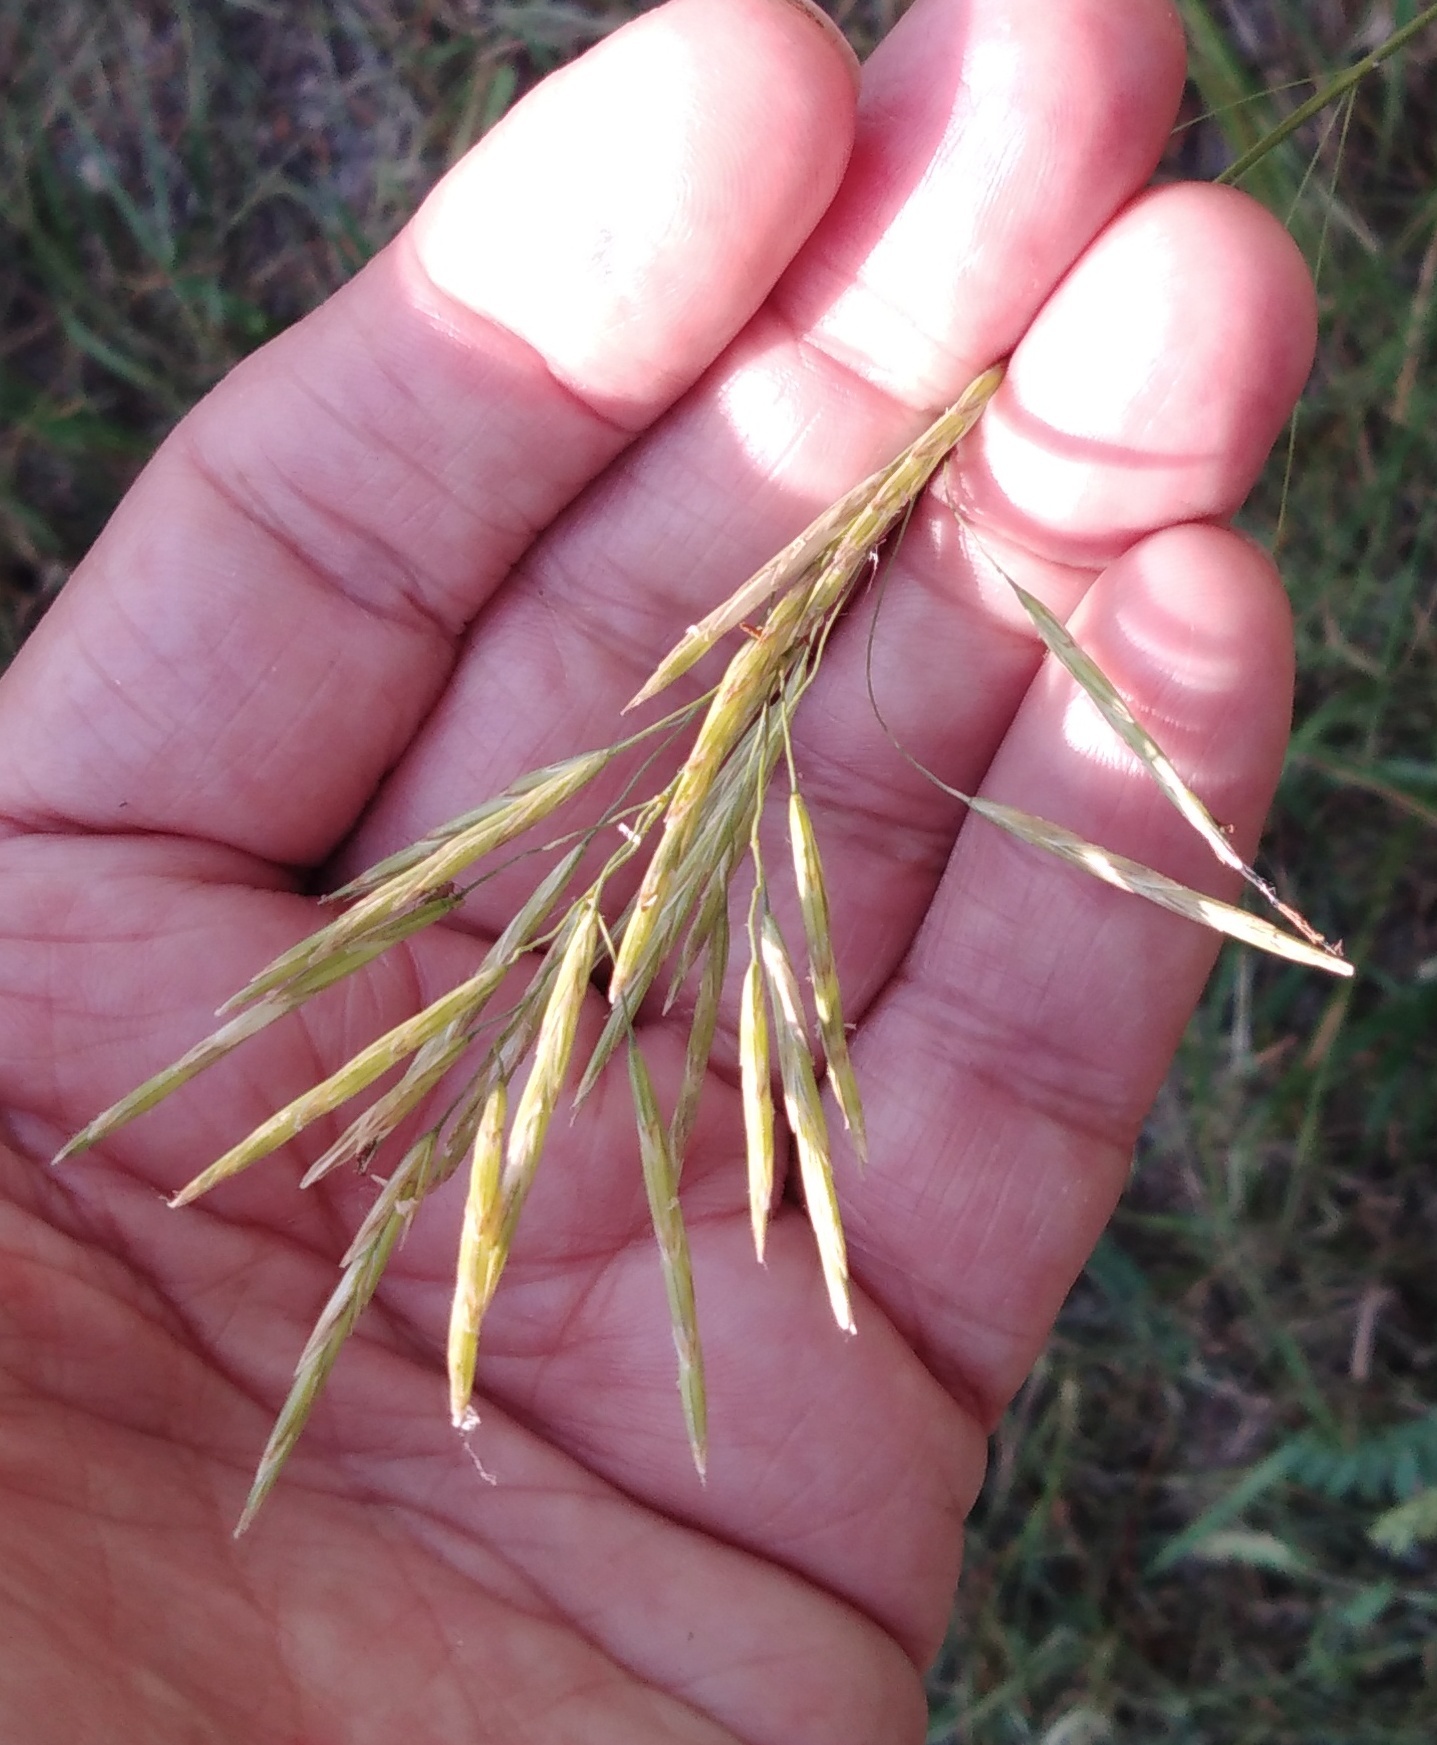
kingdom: Plantae
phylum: Tracheophyta
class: Liliopsida
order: Poales
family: Poaceae
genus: Bromus
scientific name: Bromus inermis
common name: Smooth brome
